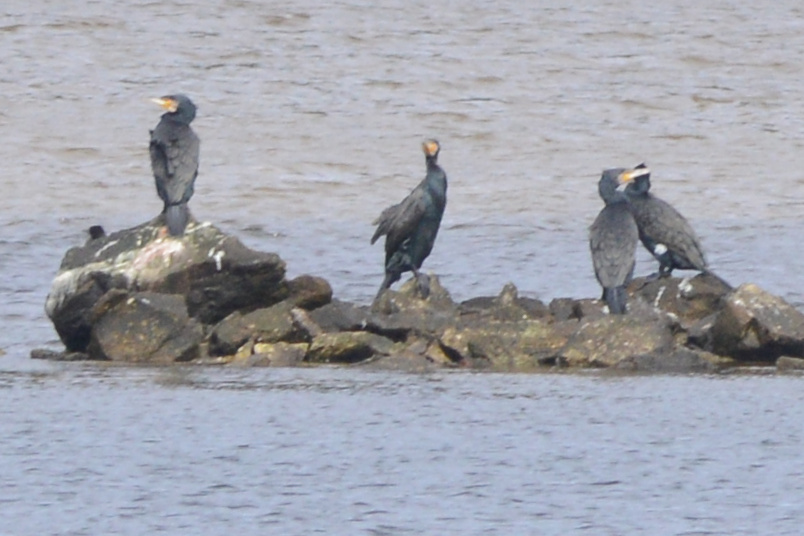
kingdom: Animalia
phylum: Chordata
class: Aves
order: Suliformes
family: Phalacrocoracidae
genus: Phalacrocorax
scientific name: Phalacrocorax carbo
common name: Great cormorant
